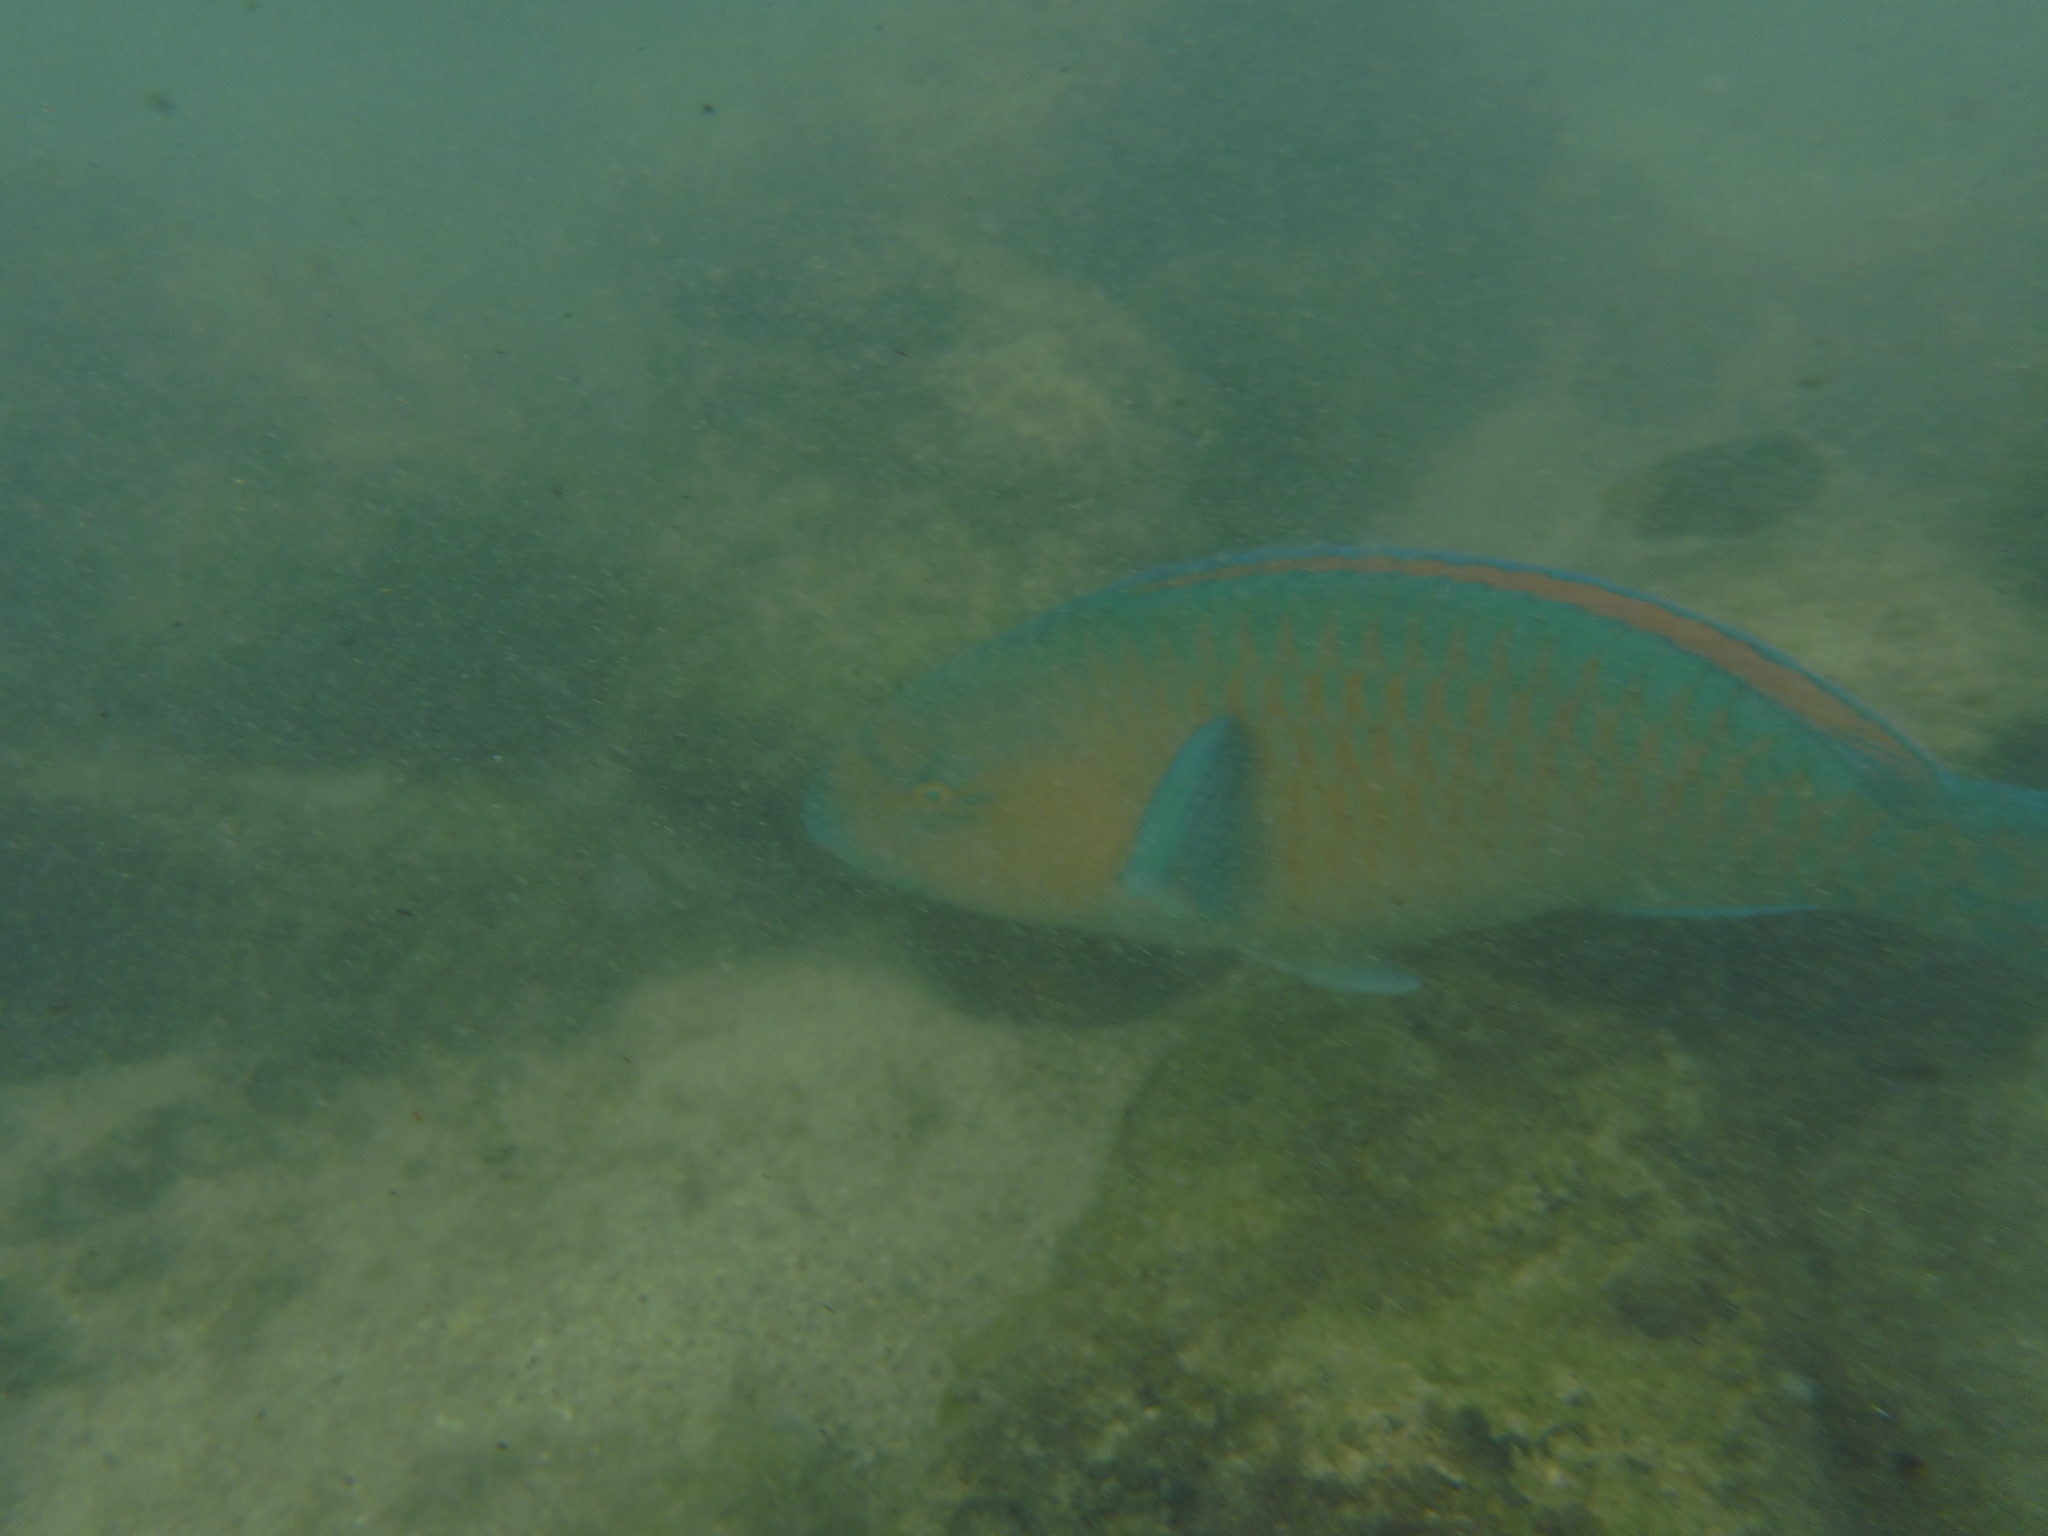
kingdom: Animalia
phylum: Chordata
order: Perciformes
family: Scaridae
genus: Scarus
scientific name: Scarus ghobban
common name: Blue-barred parrotfish
